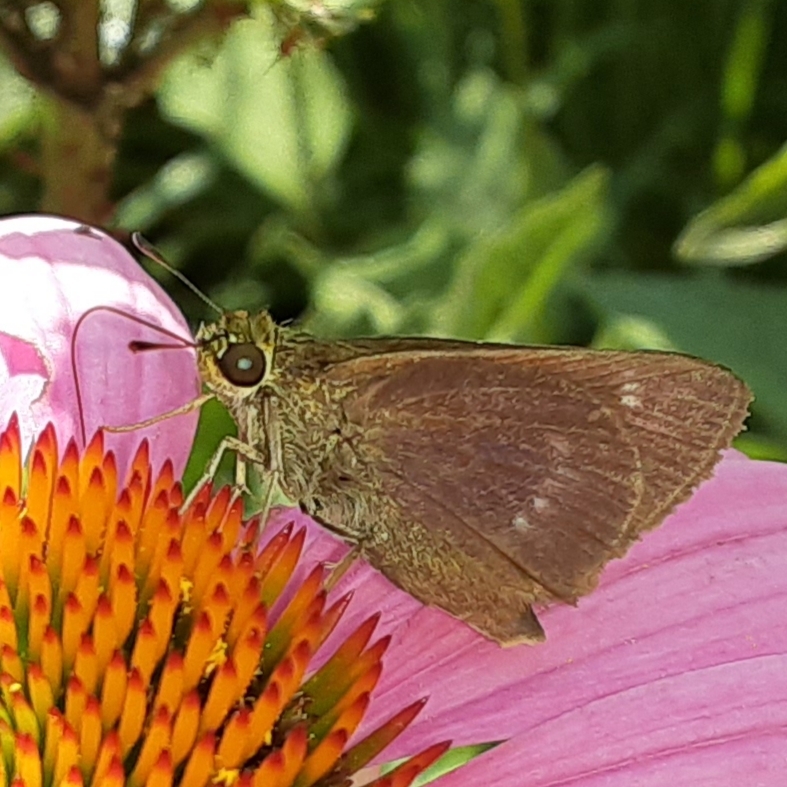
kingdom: Animalia
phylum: Arthropoda
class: Insecta
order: Lepidoptera
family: Hesperiidae
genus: Vernia
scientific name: Vernia verna
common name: Little glassywing
